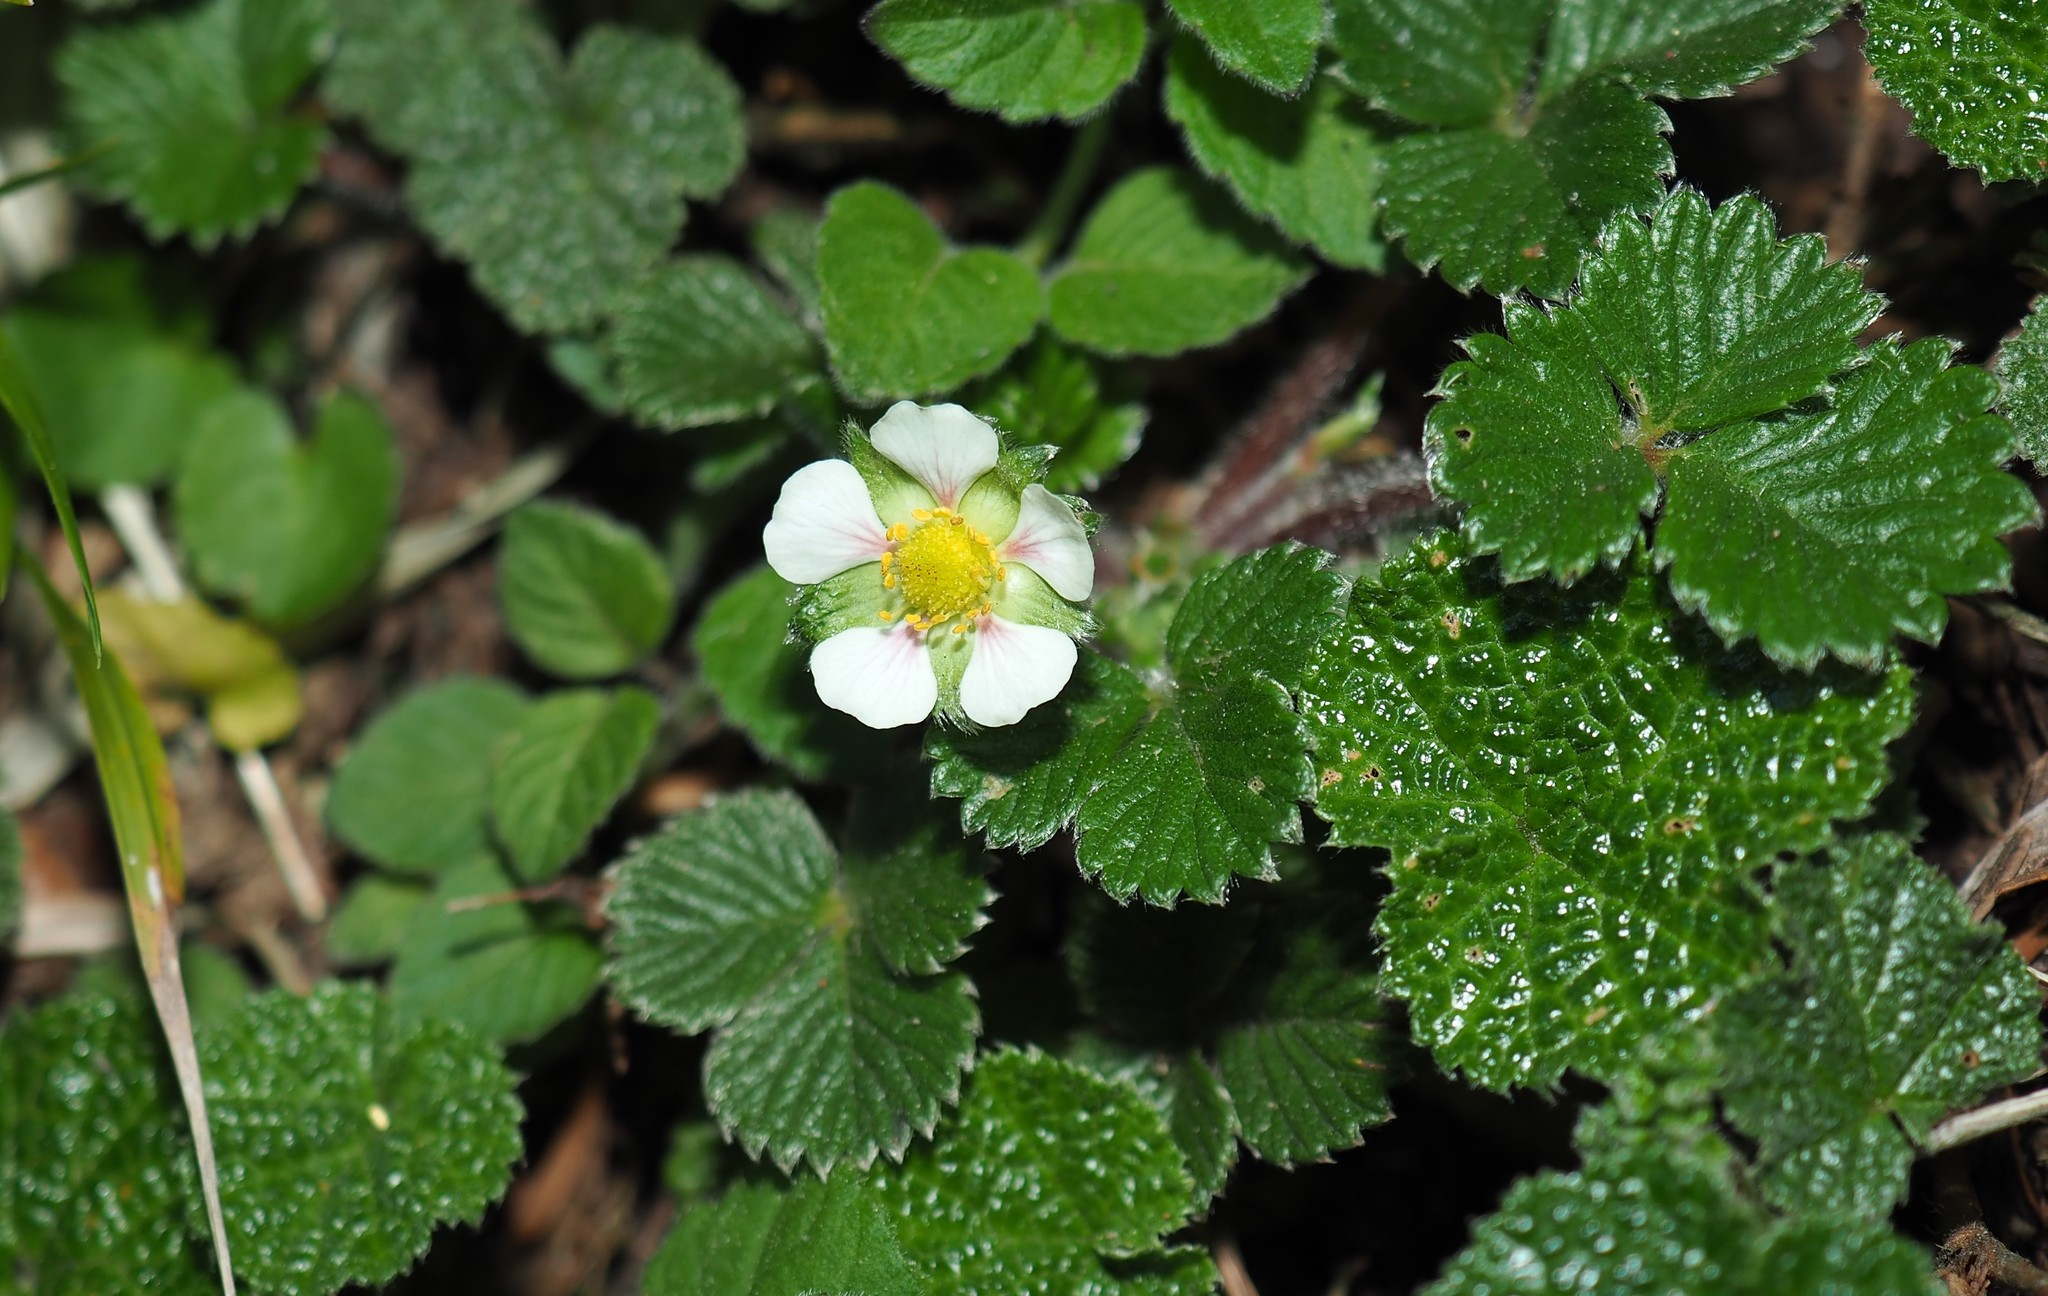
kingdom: Plantae
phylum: Tracheophyta
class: Magnoliopsida
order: Rosales
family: Rosaceae
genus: Fragaria
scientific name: Fragaria nilgerrensis
